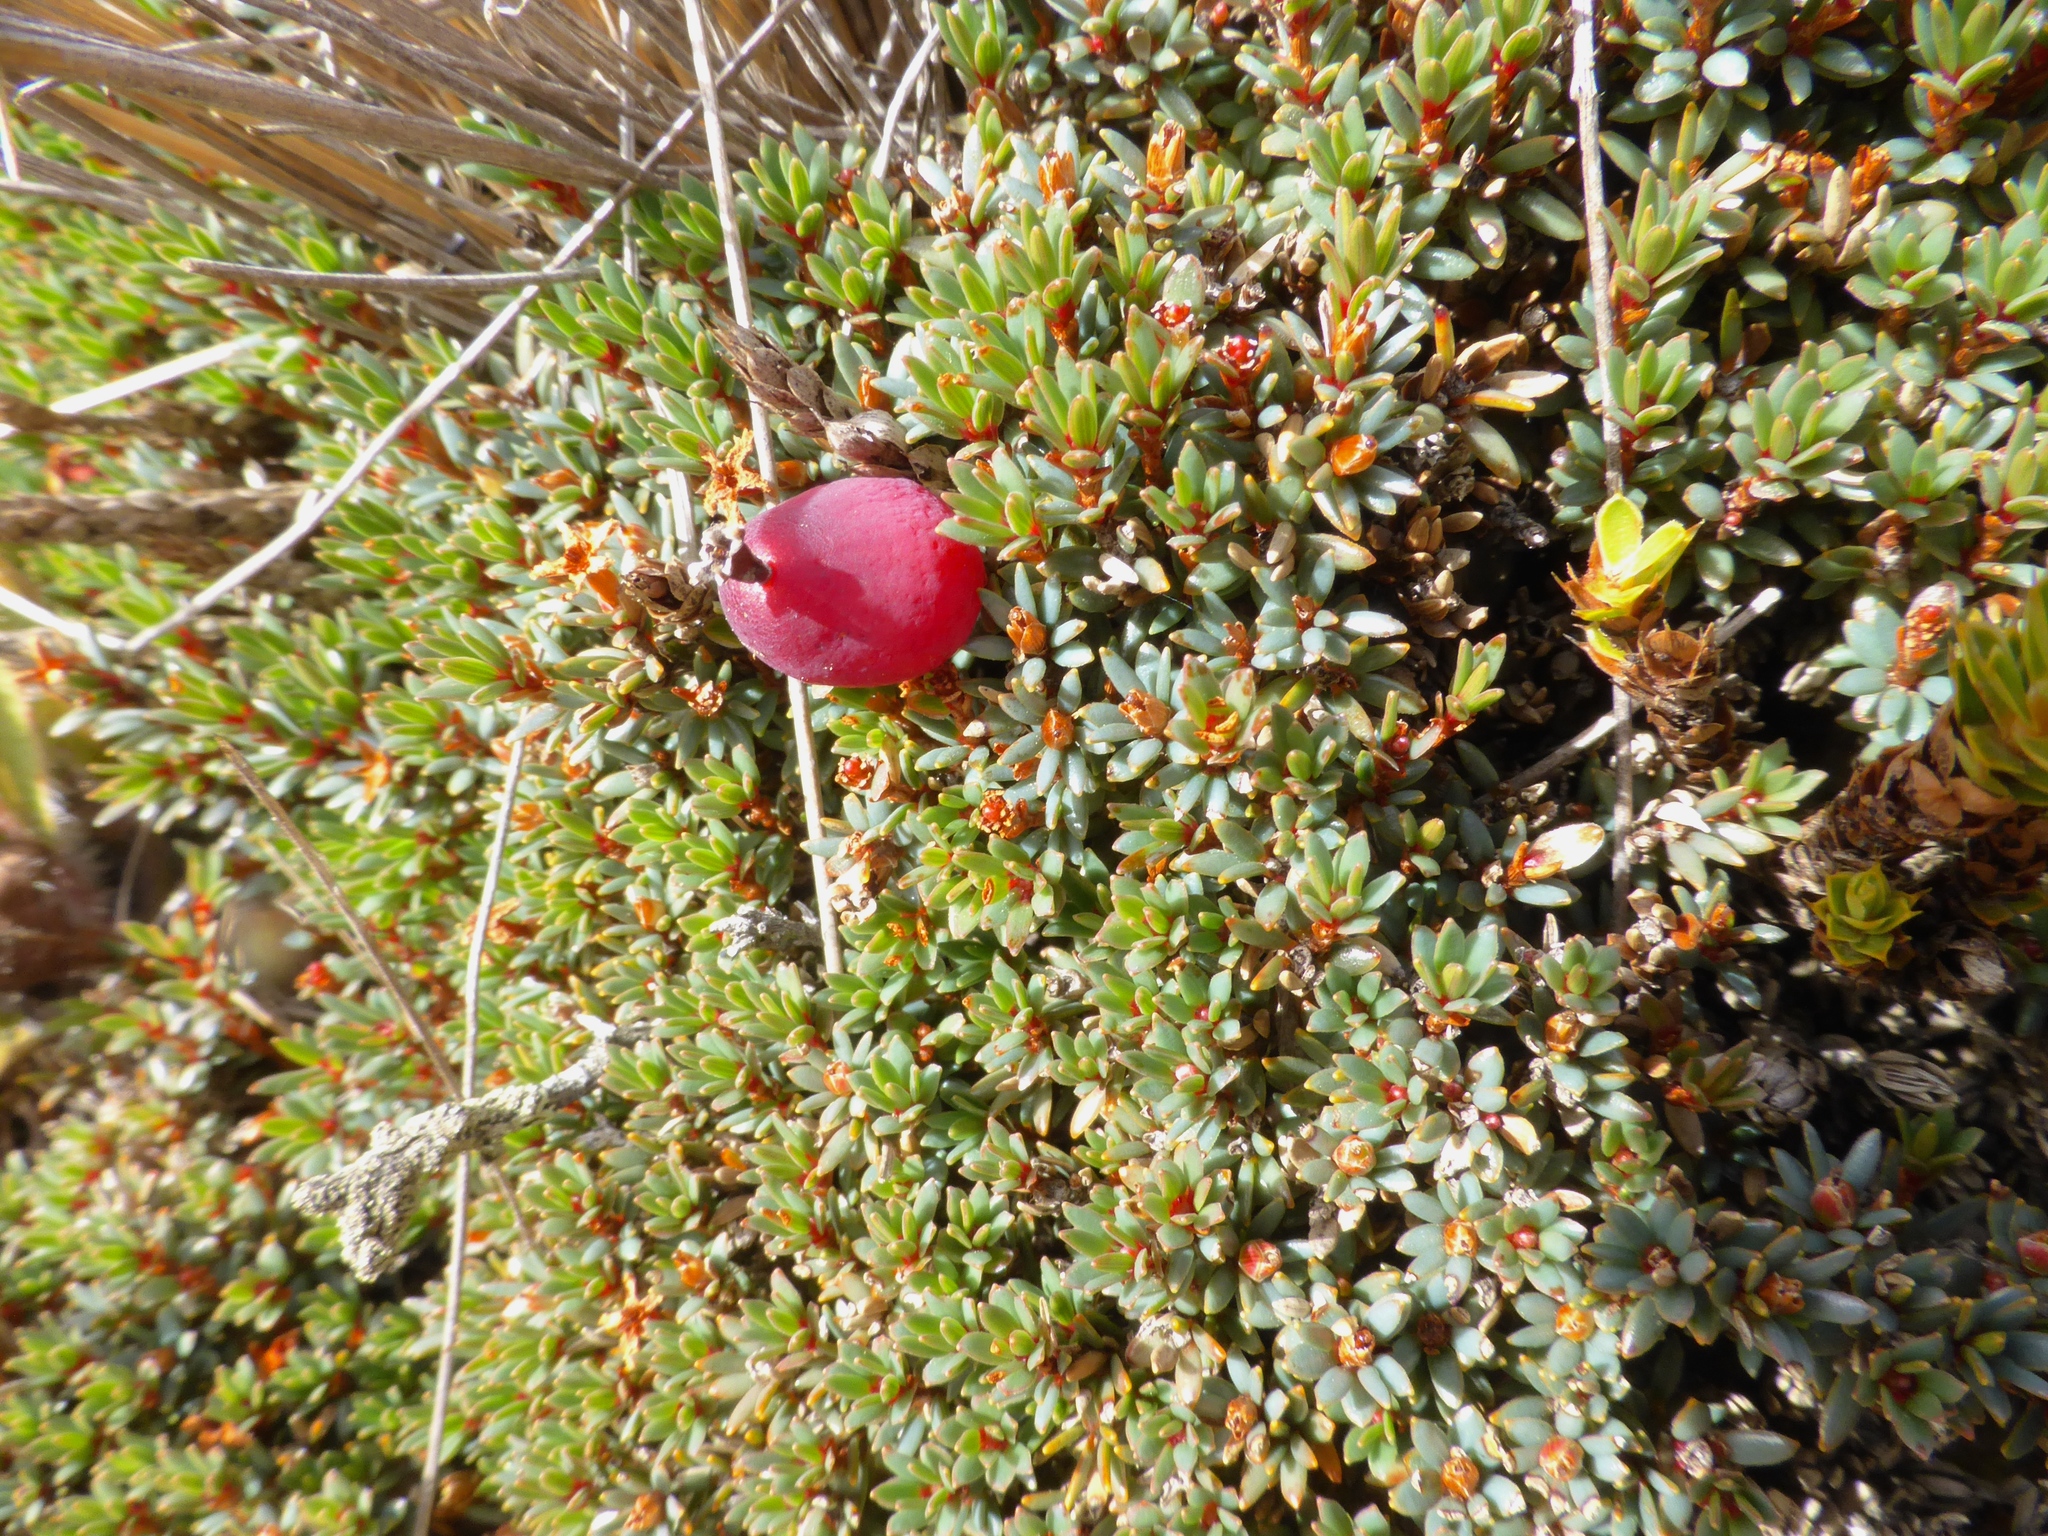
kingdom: Plantae
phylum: Tracheophyta
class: Magnoliopsida
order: Ericales
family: Ericaceae
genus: Pentachondra
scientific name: Pentachondra pumila
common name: Carpet-heath
